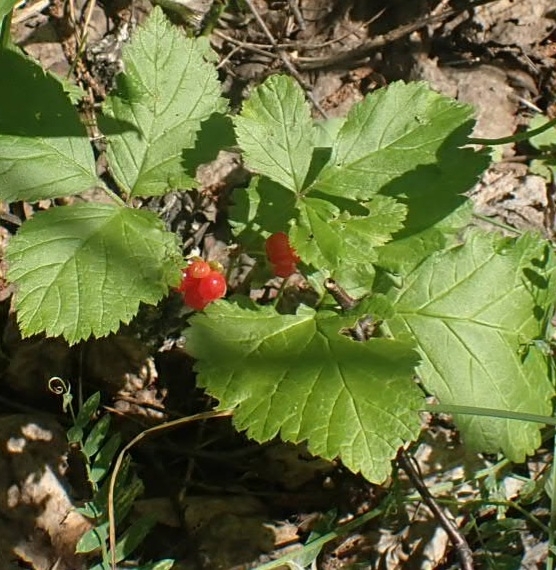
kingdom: Plantae
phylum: Tracheophyta
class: Magnoliopsida
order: Rosales
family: Rosaceae
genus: Rubus
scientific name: Rubus saxatilis
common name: Stone bramble
